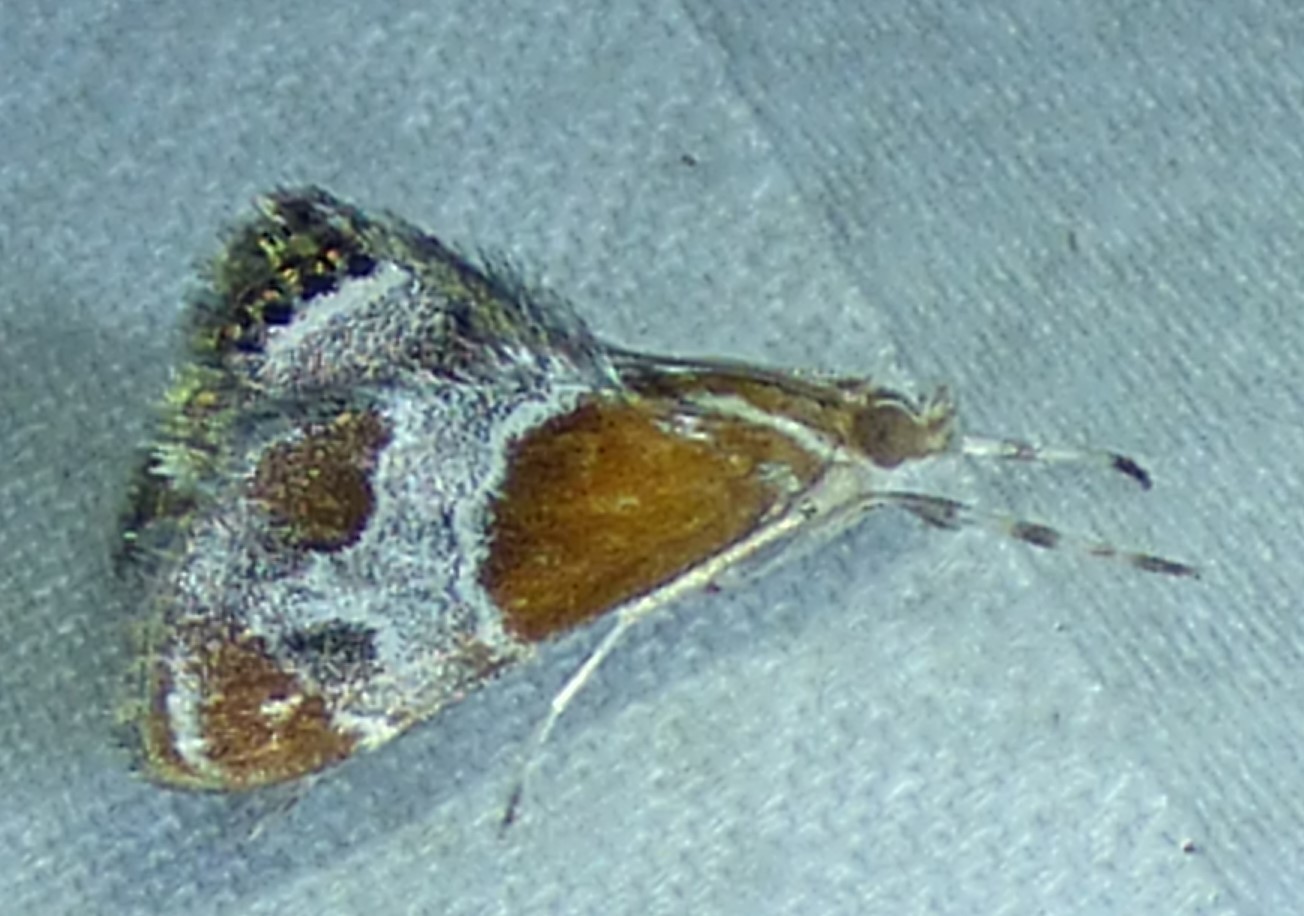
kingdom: Animalia
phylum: Arthropoda
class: Insecta
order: Lepidoptera
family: Crambidae
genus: Chalcoela
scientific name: Chalcoela pegasalis
